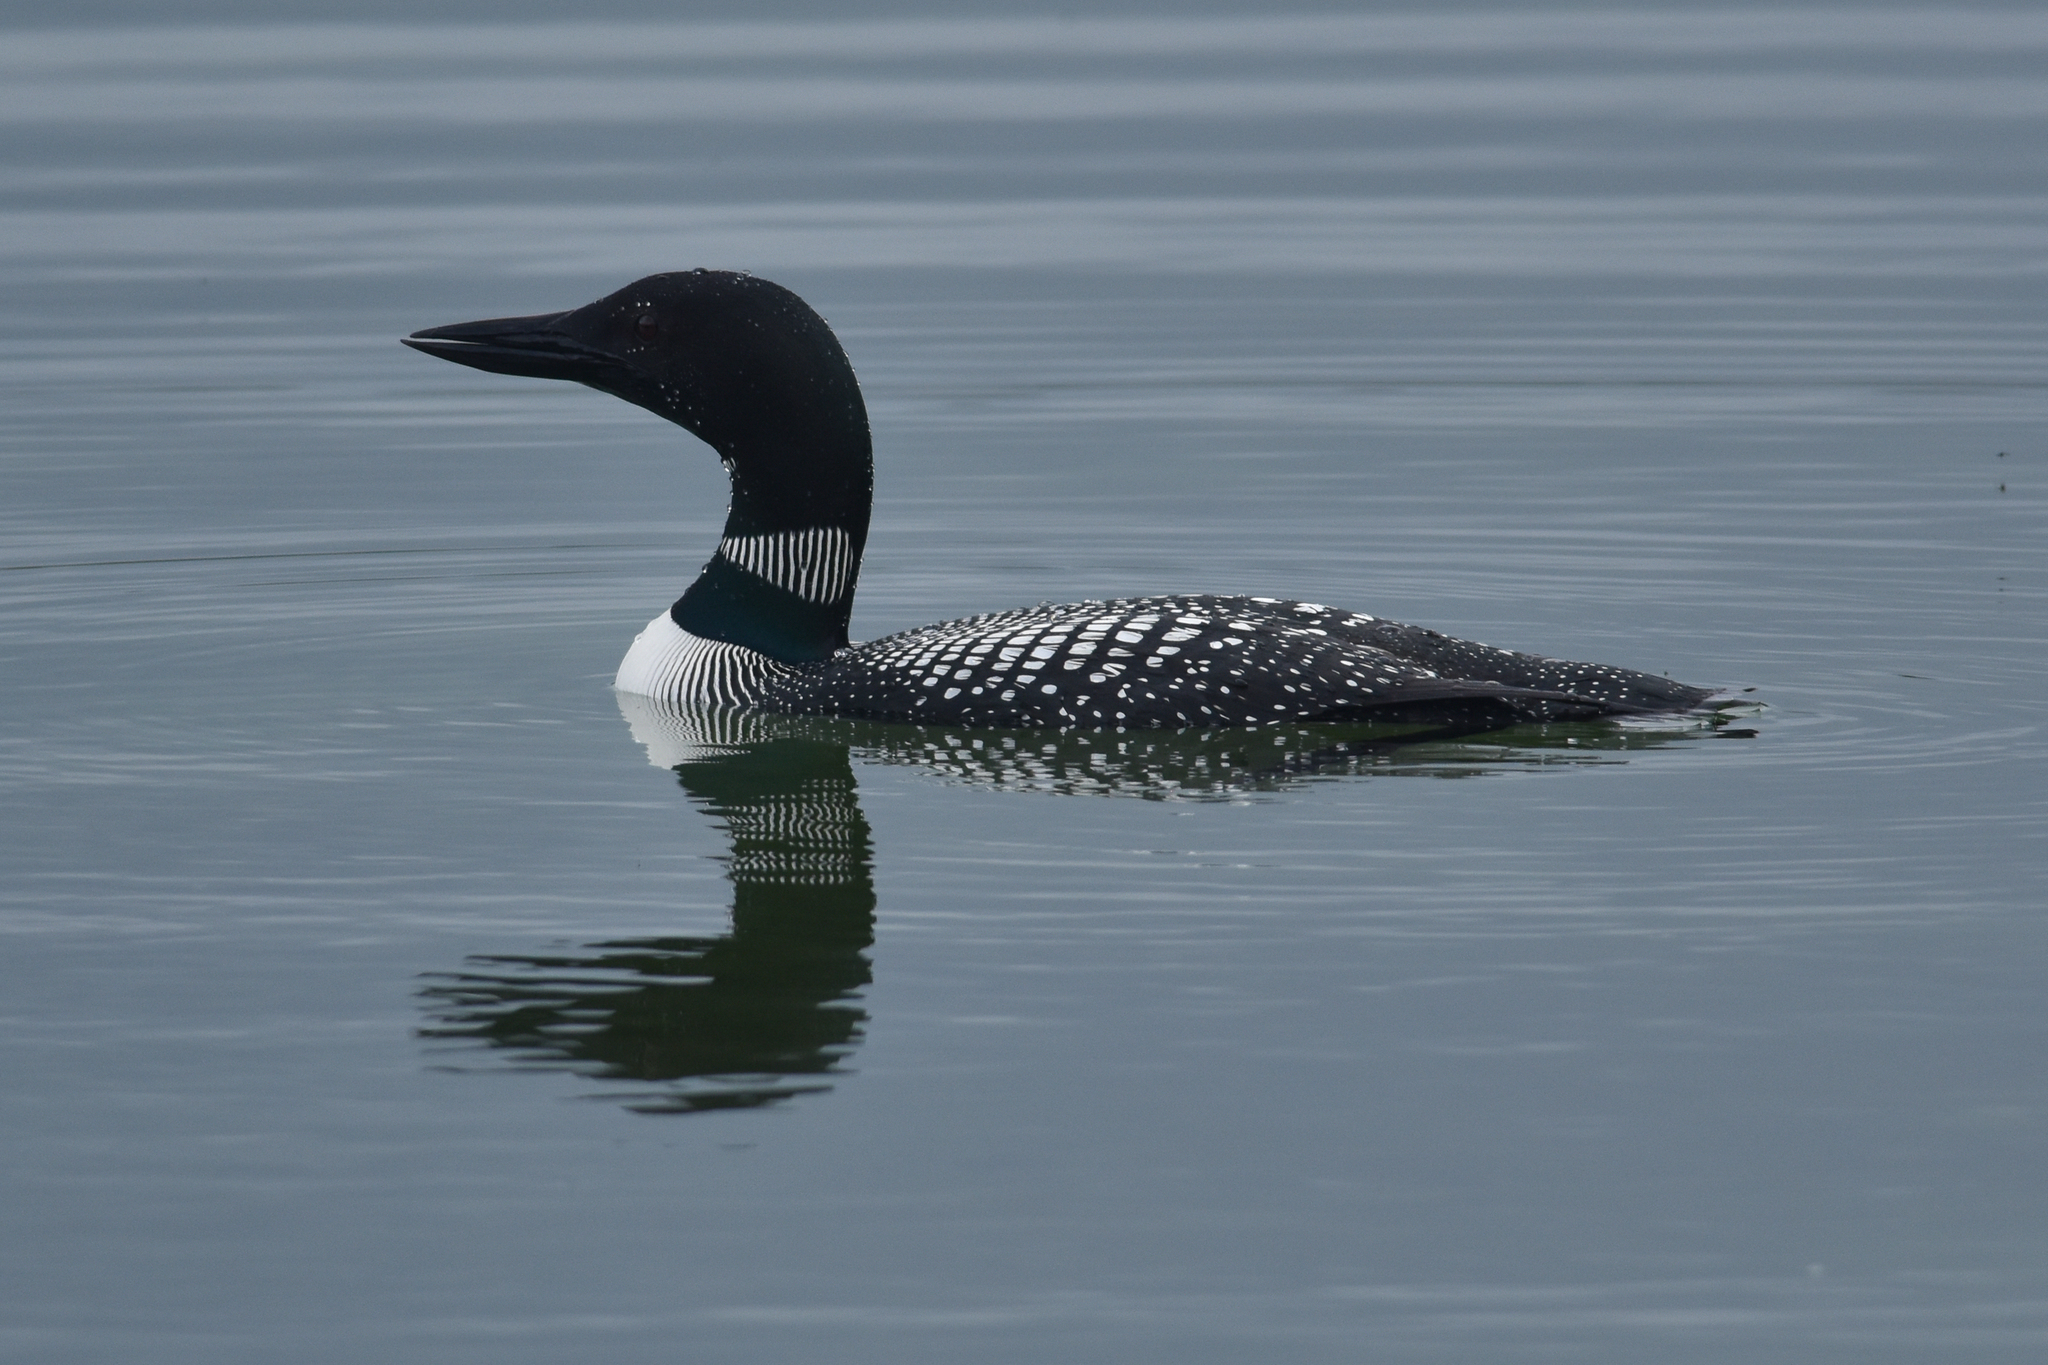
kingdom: Animalia
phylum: Chordata
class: Aves
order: Gaviiformes
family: Gaviidae
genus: Gavia
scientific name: Gavia immer
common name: Common loon
